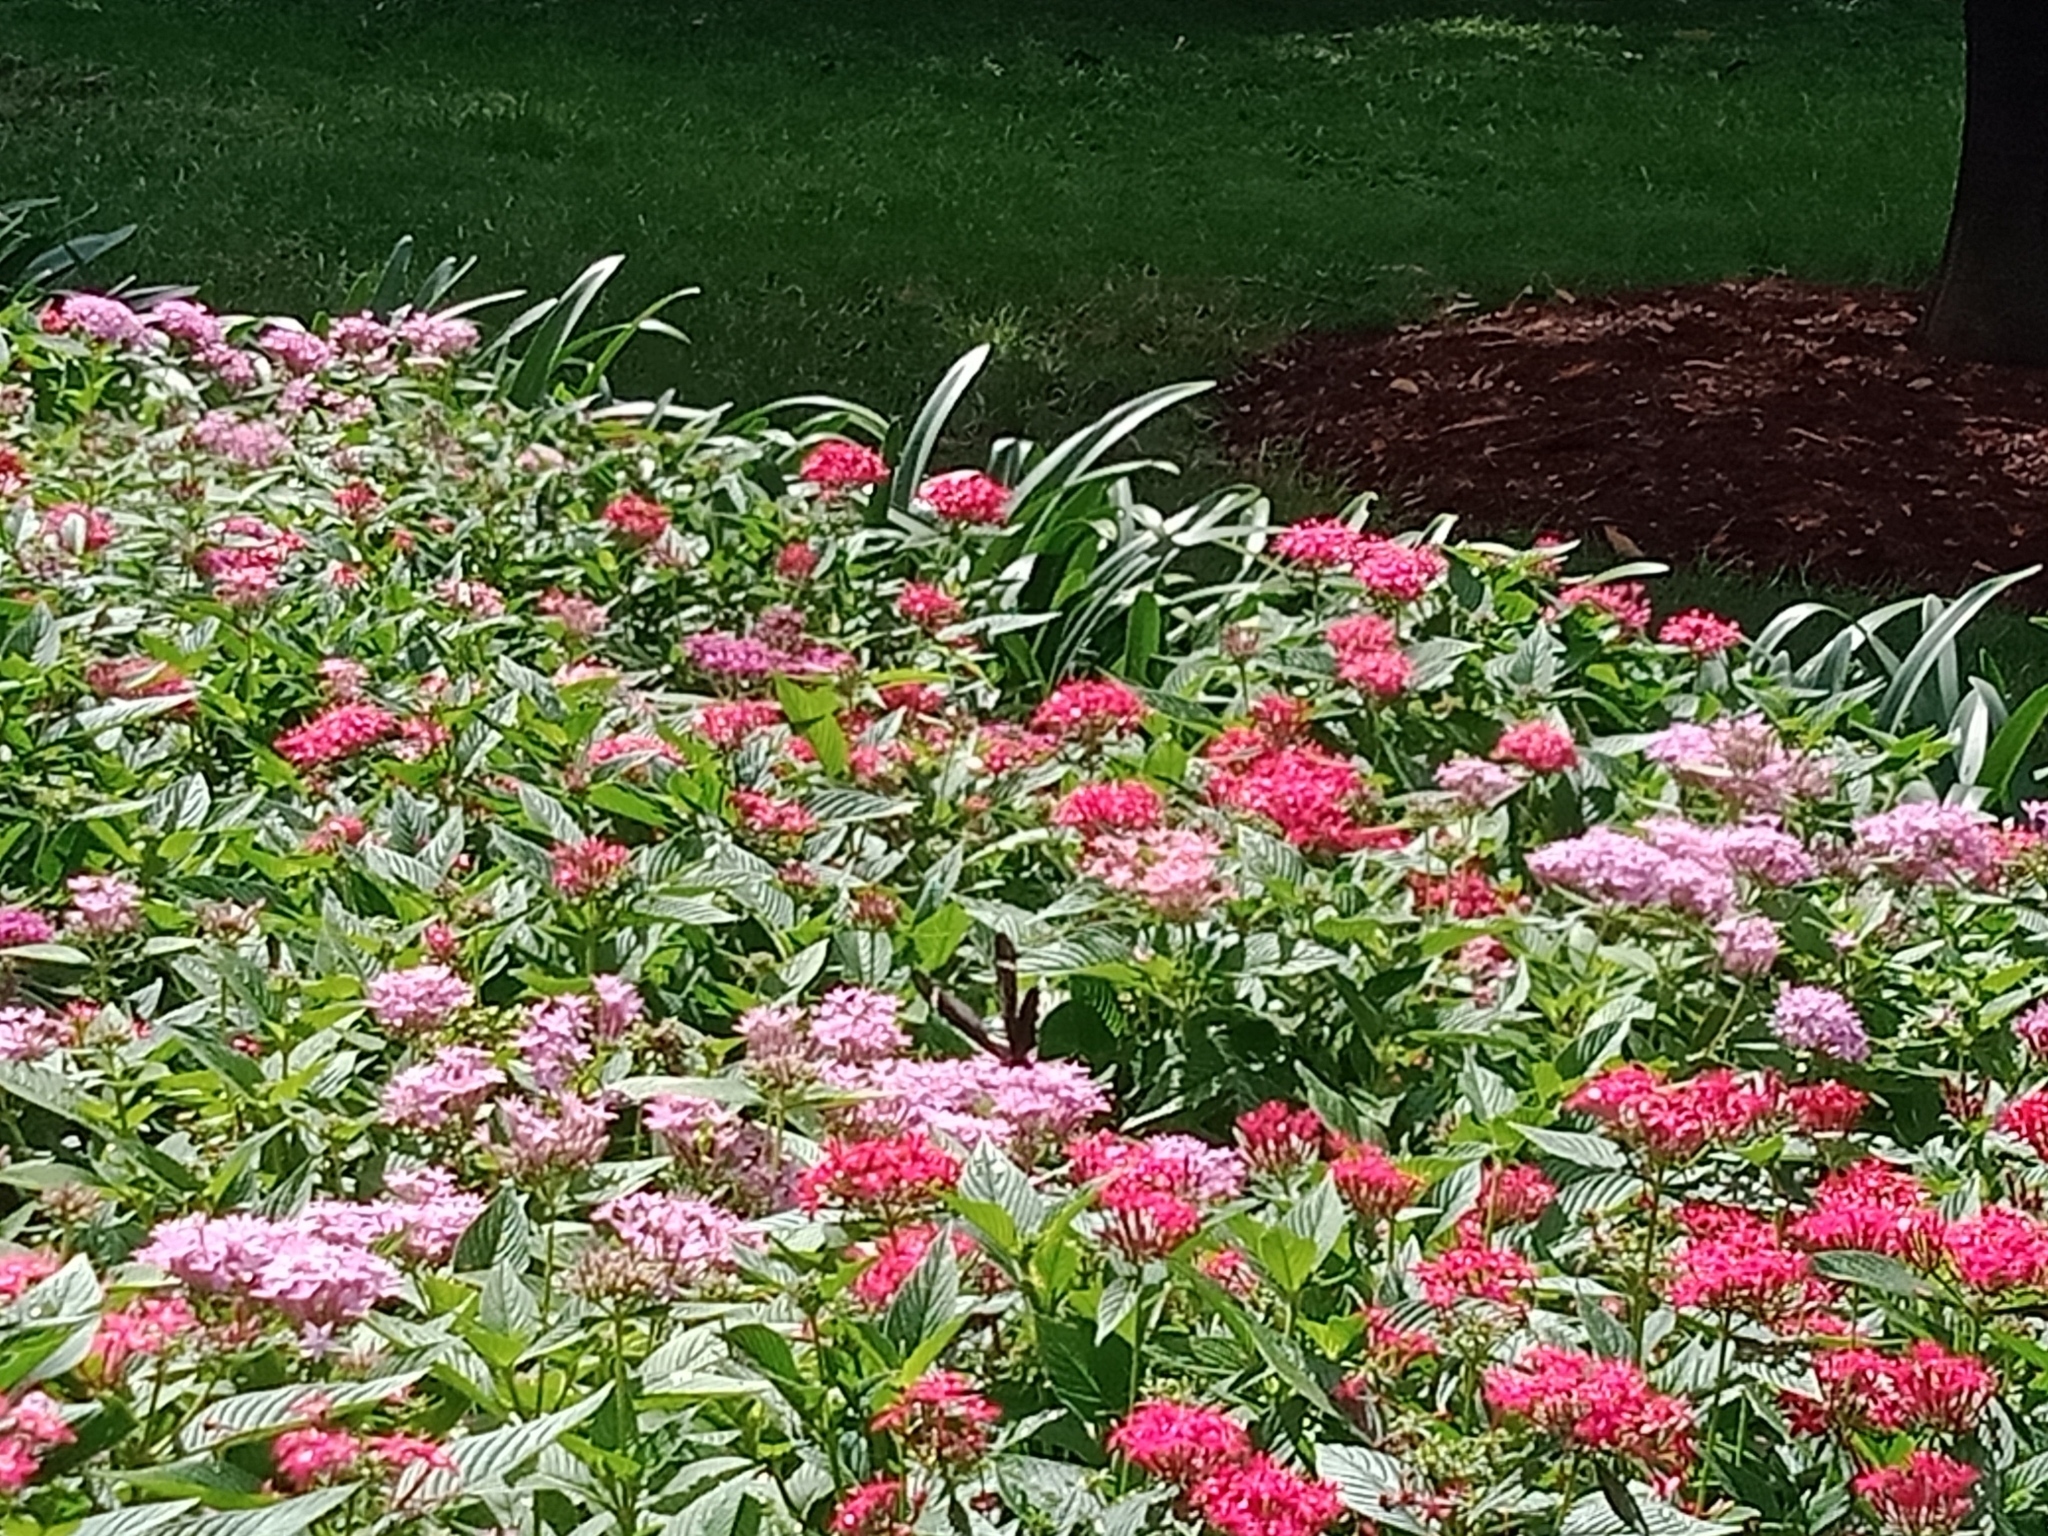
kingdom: Animalia
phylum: Arthropoda
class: Insecta
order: Lepidoptera
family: Papilionidae
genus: Papilio
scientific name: Papilio aegeus
